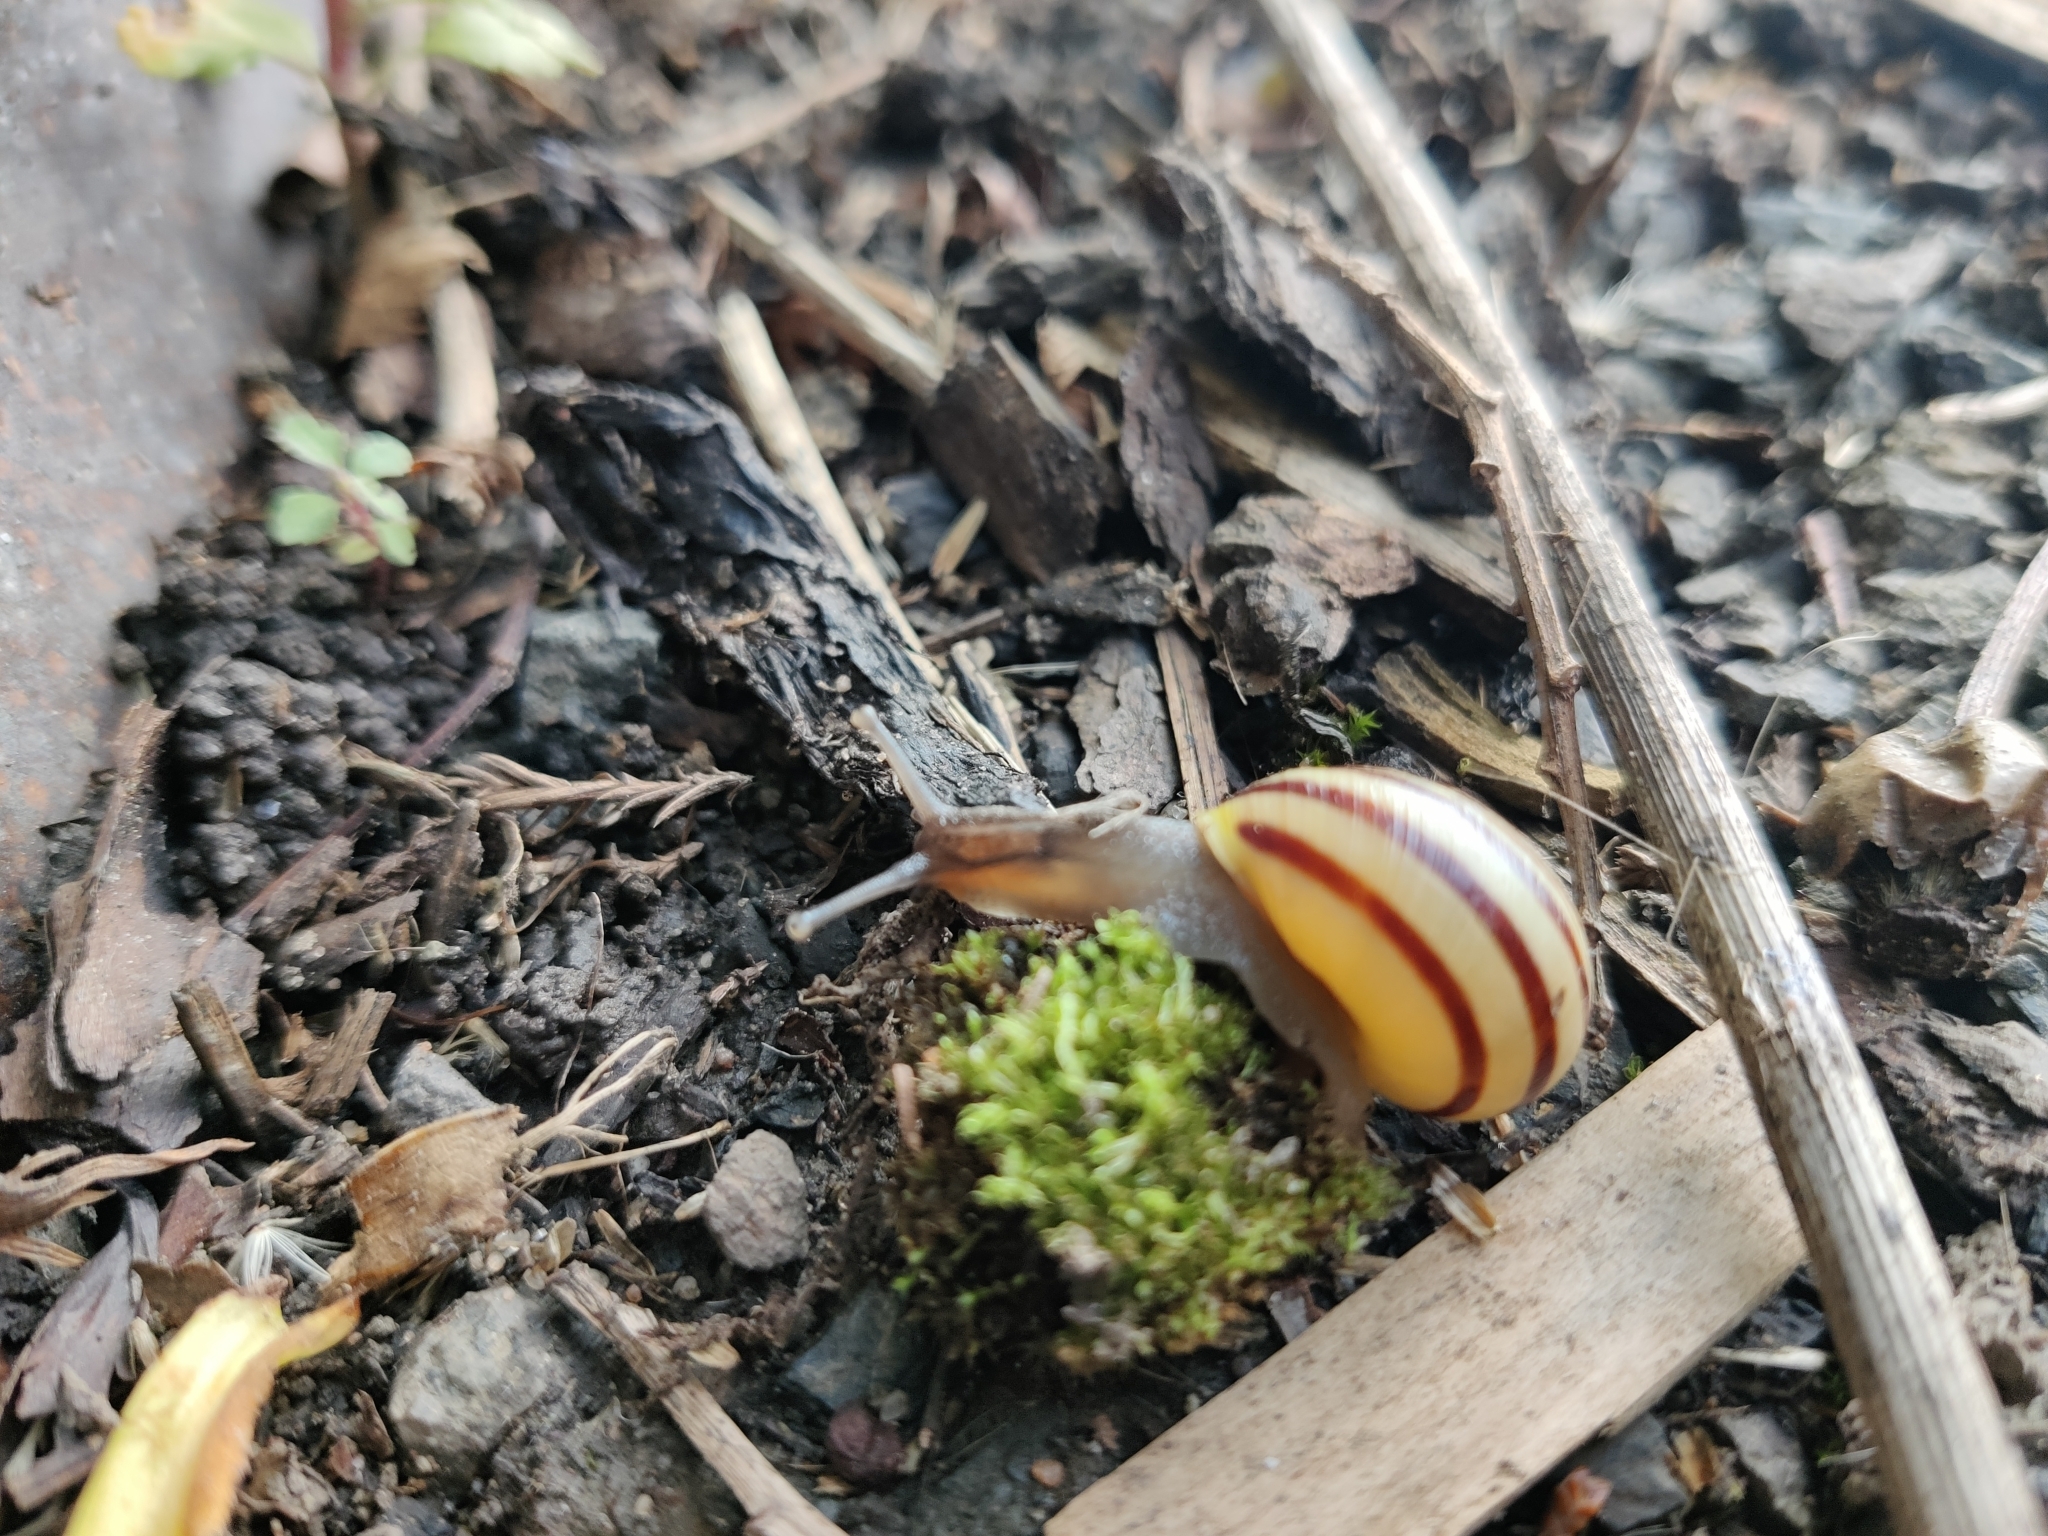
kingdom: Animalia
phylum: Mollusca
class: Gastropoda
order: Stylommatophora
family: Helicidae
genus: Cepaea
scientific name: Cepaea hortensis
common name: White-lip gardensnail
